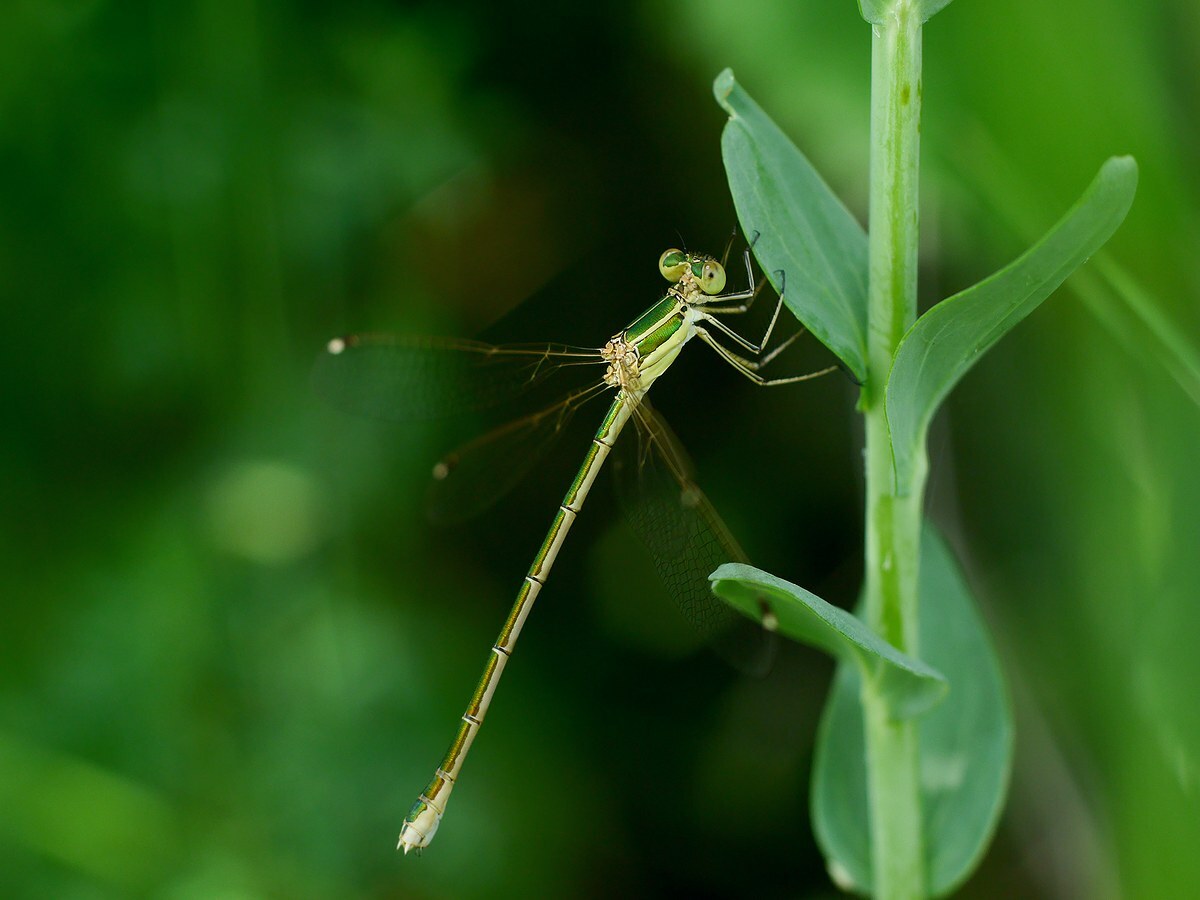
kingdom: Animalia
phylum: Arthropoda
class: Insecta
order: Odonata
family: Lestidae
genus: Lestes
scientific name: Lestes barbarus
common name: Migrant spreadwing
